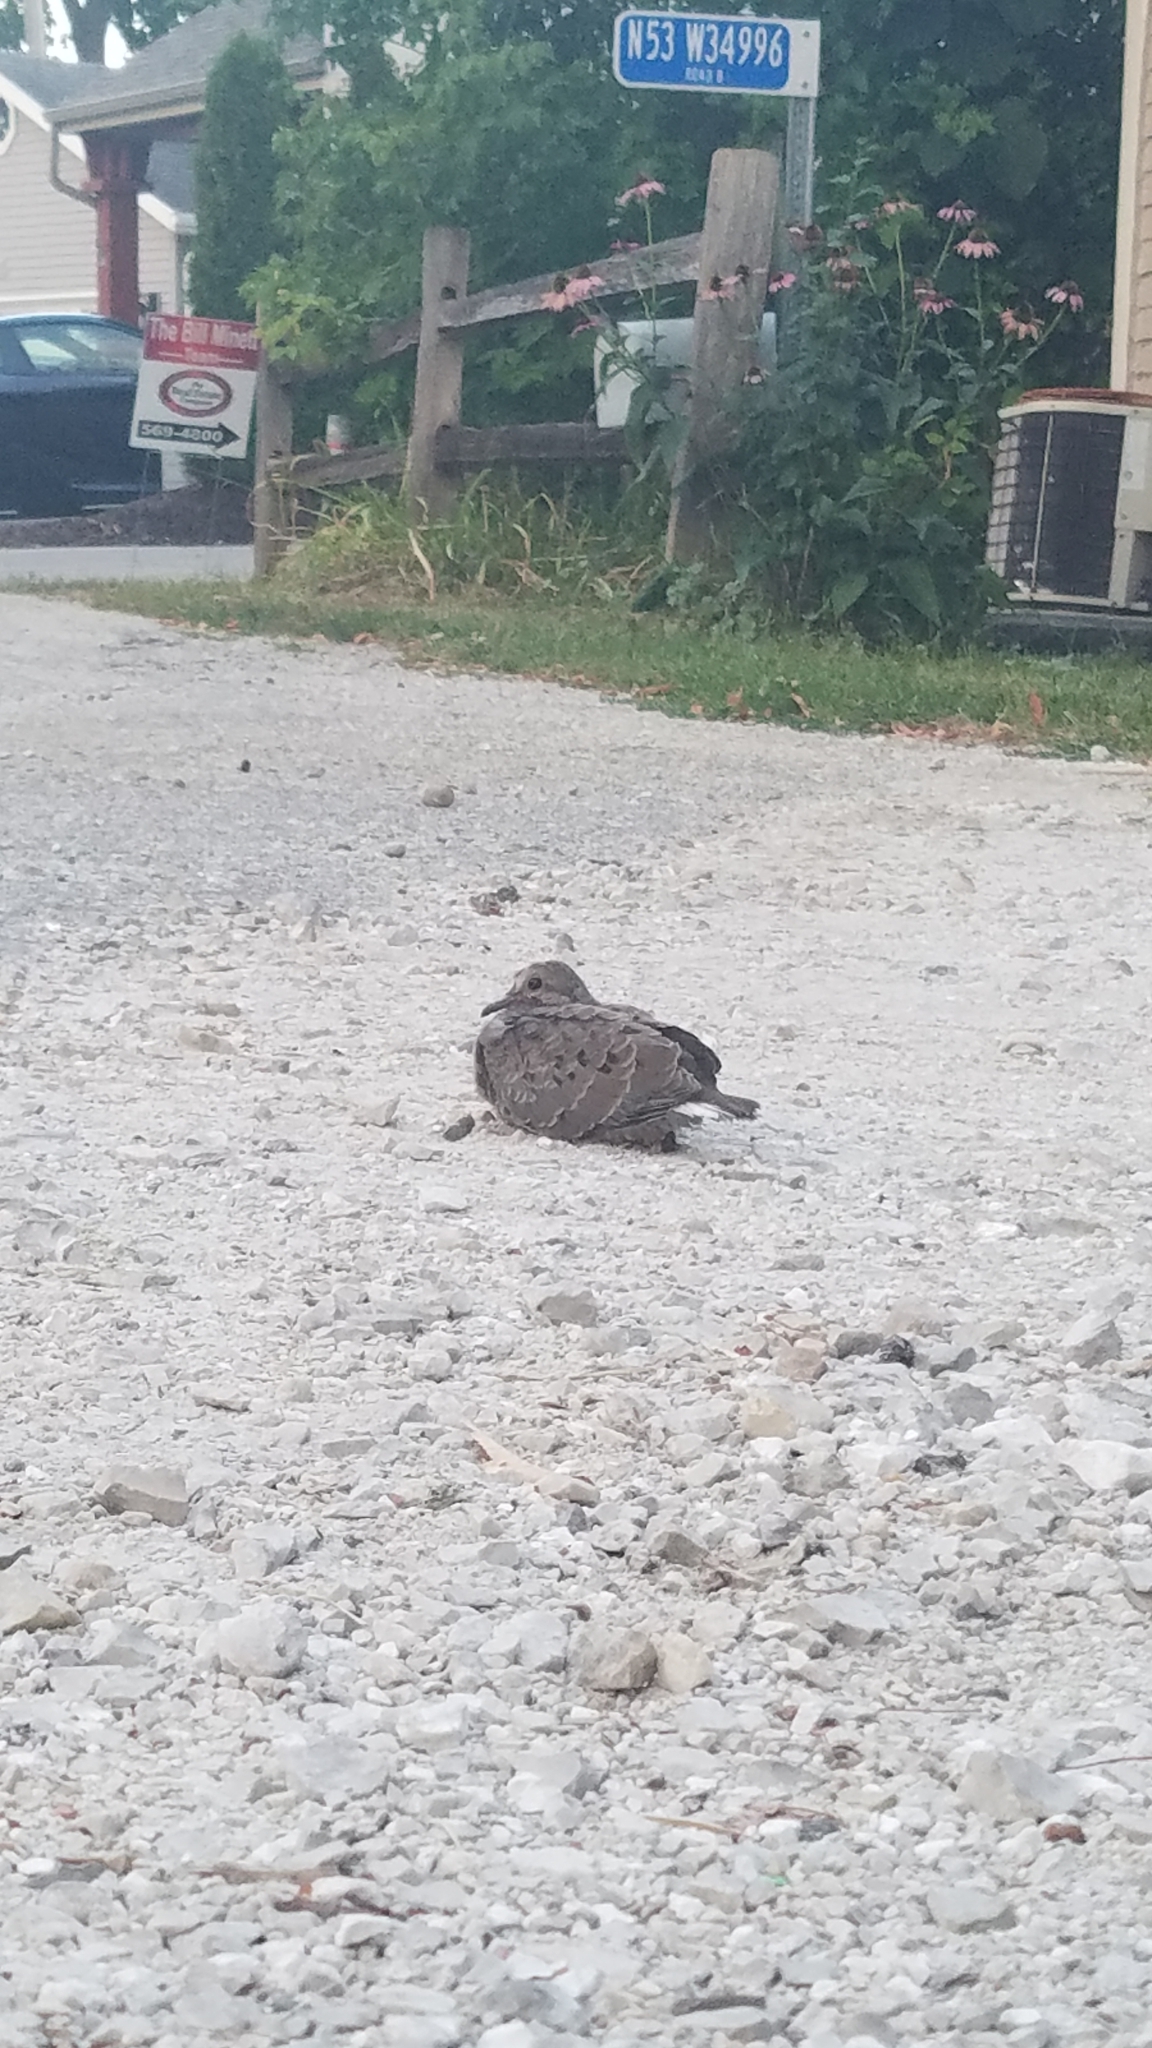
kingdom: Animalia
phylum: Chordata
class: Aves
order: Columbiformes
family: Columbidae
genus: Zenaida
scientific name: Zenaida macroura
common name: Mourning dove
